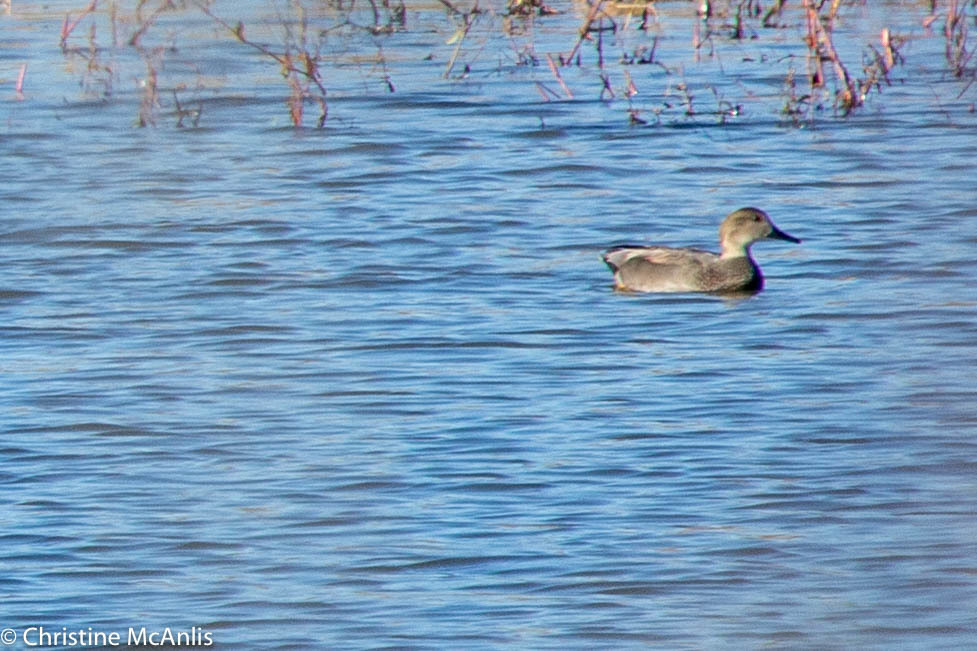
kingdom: Animalia
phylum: Chordata
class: Aves
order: Anseriformes
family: Anatidae
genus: Mareca
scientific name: Mareca strepera
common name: Gadwall
